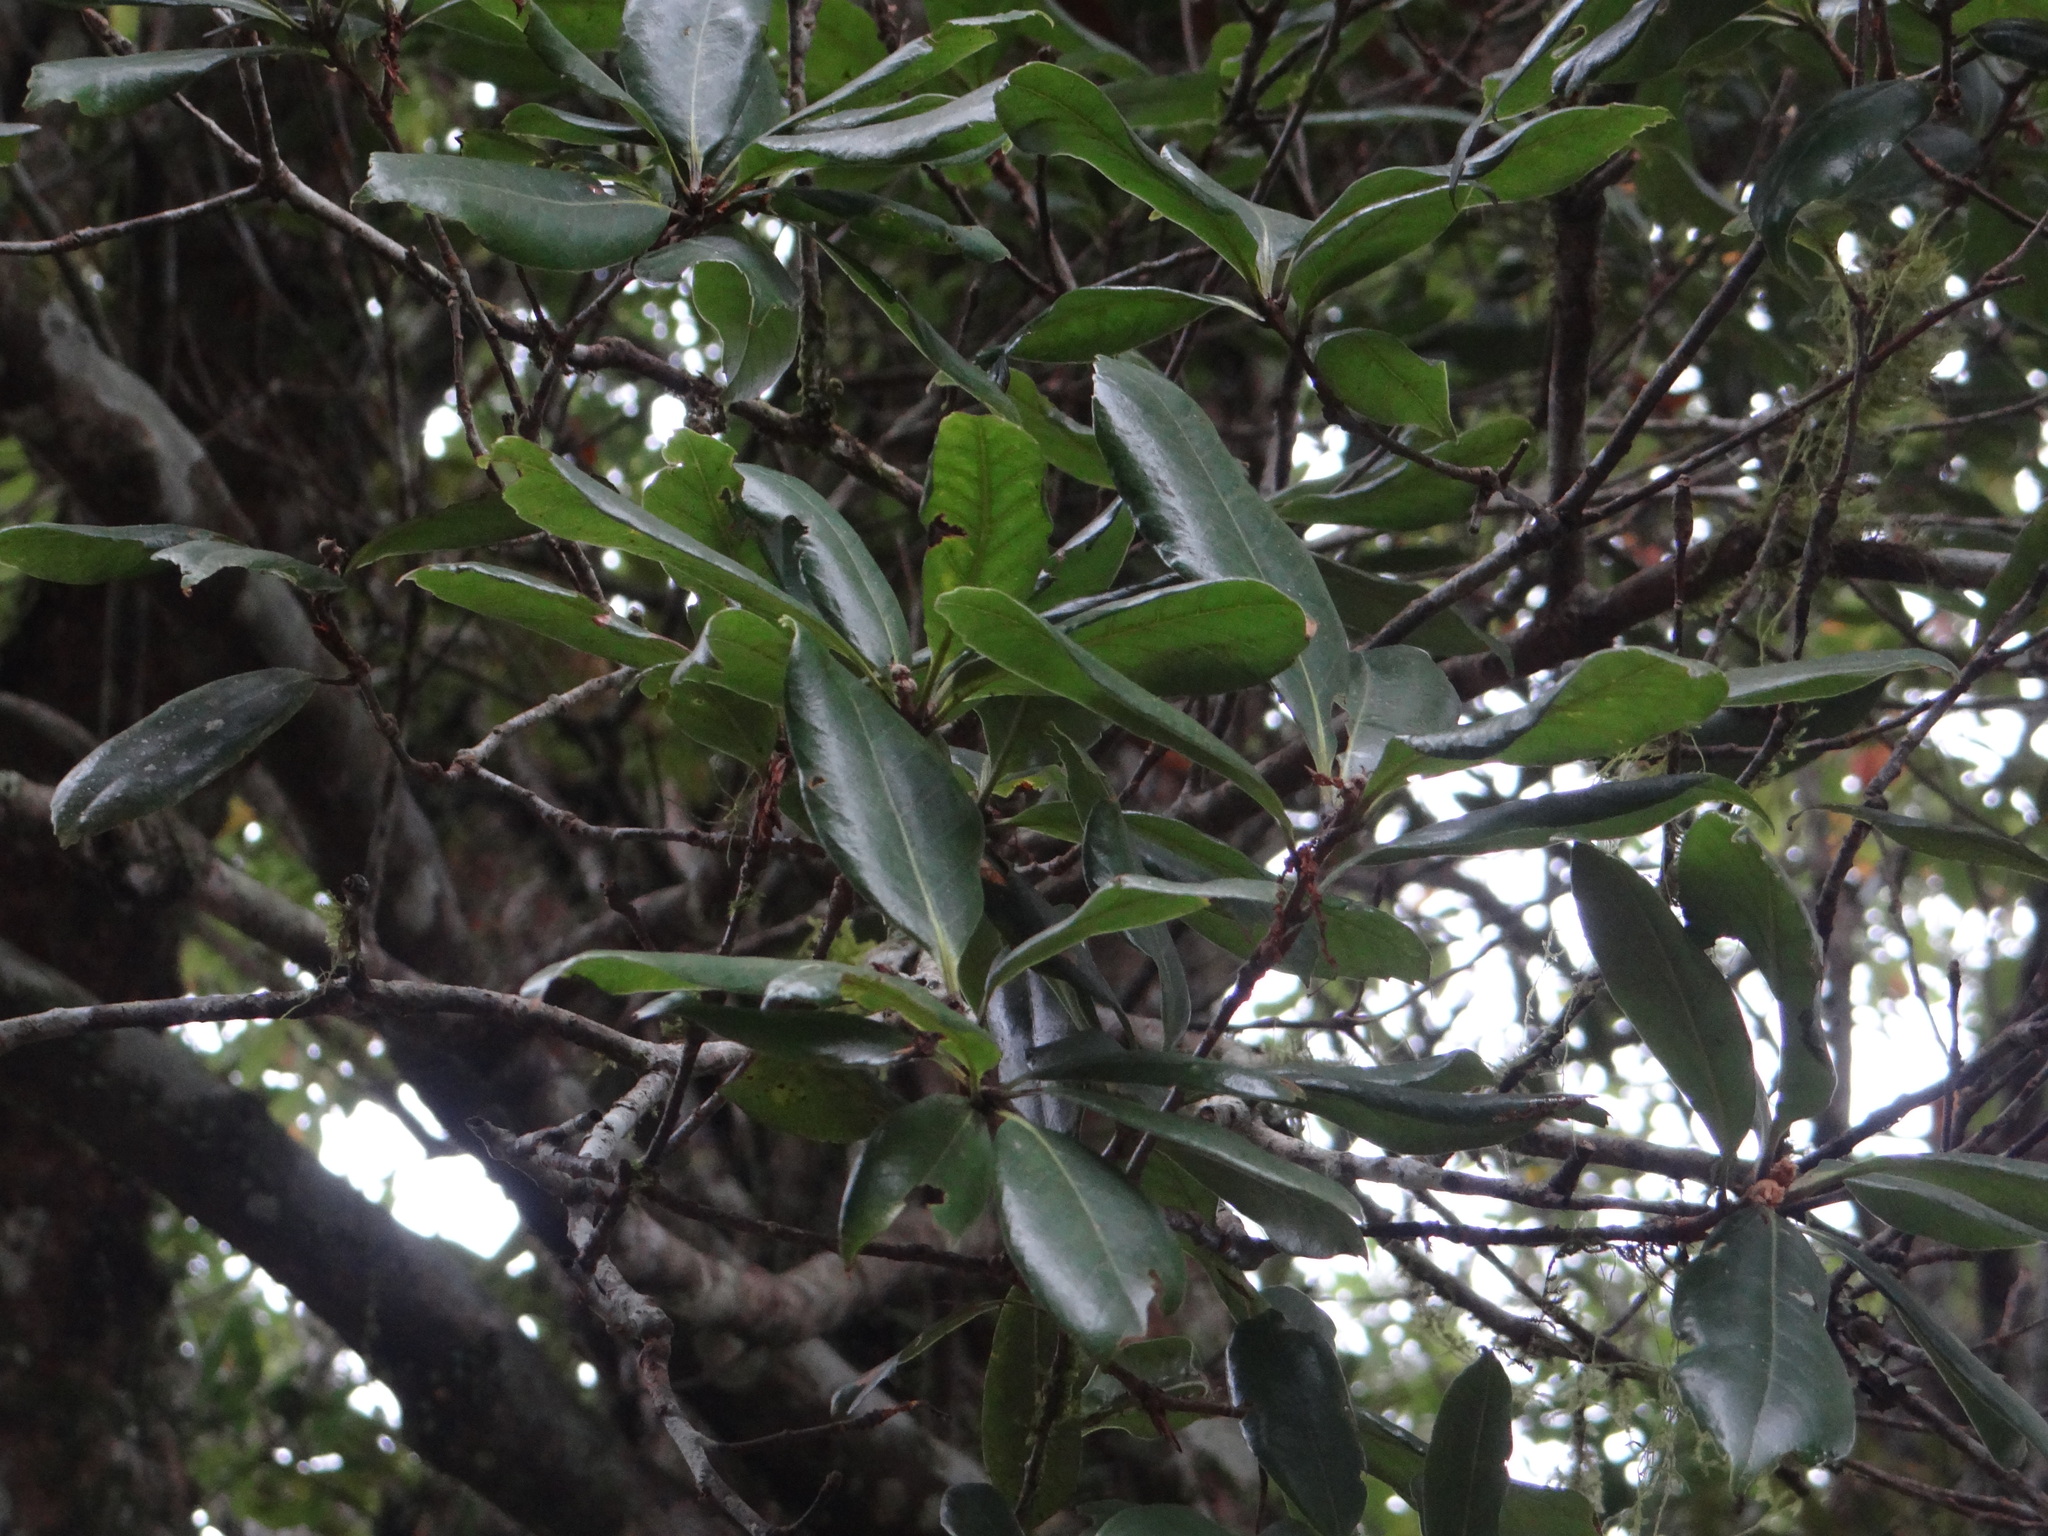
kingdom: Plantae
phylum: Tracheophyta
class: Magnoliopsida
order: Fagales
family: Fagaceae
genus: Quercus
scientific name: Quercus sessilifolia
